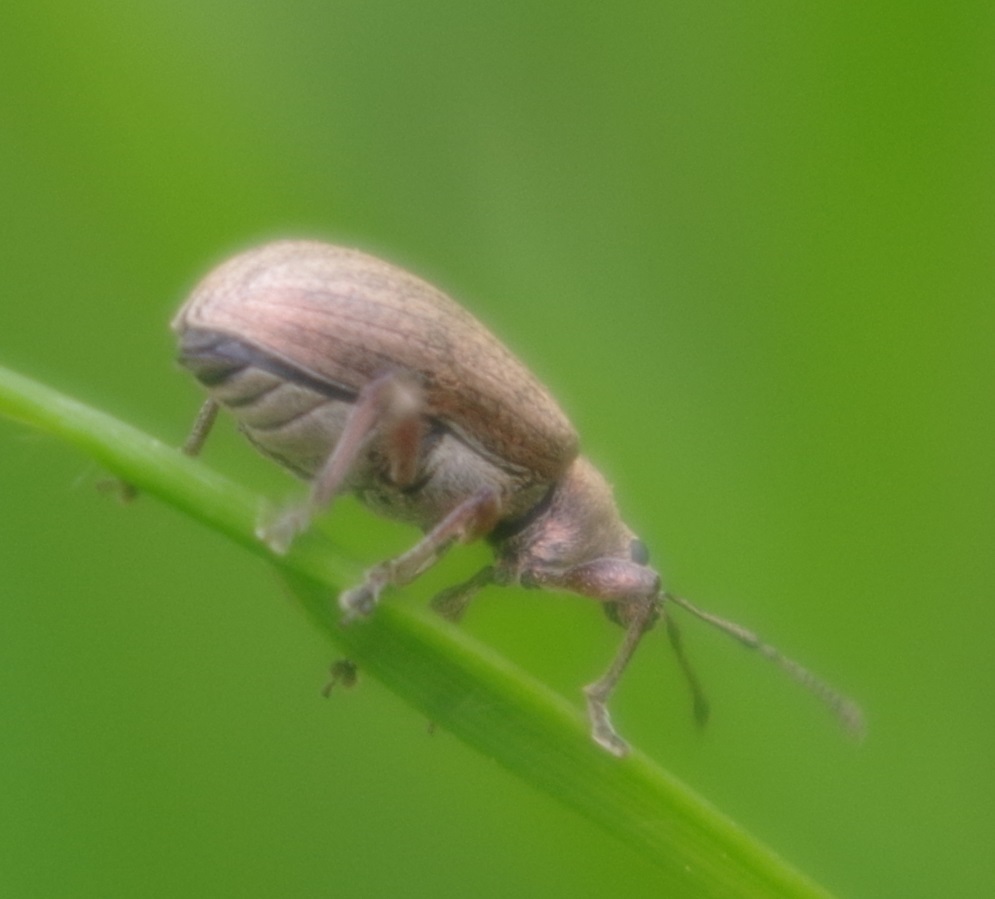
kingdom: Animalia
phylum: Arthropoda
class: Insecta
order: Coleoptera
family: Curculionidae
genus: Phyllobius
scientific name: Phyllobius pyri
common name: Common leaf weevil
